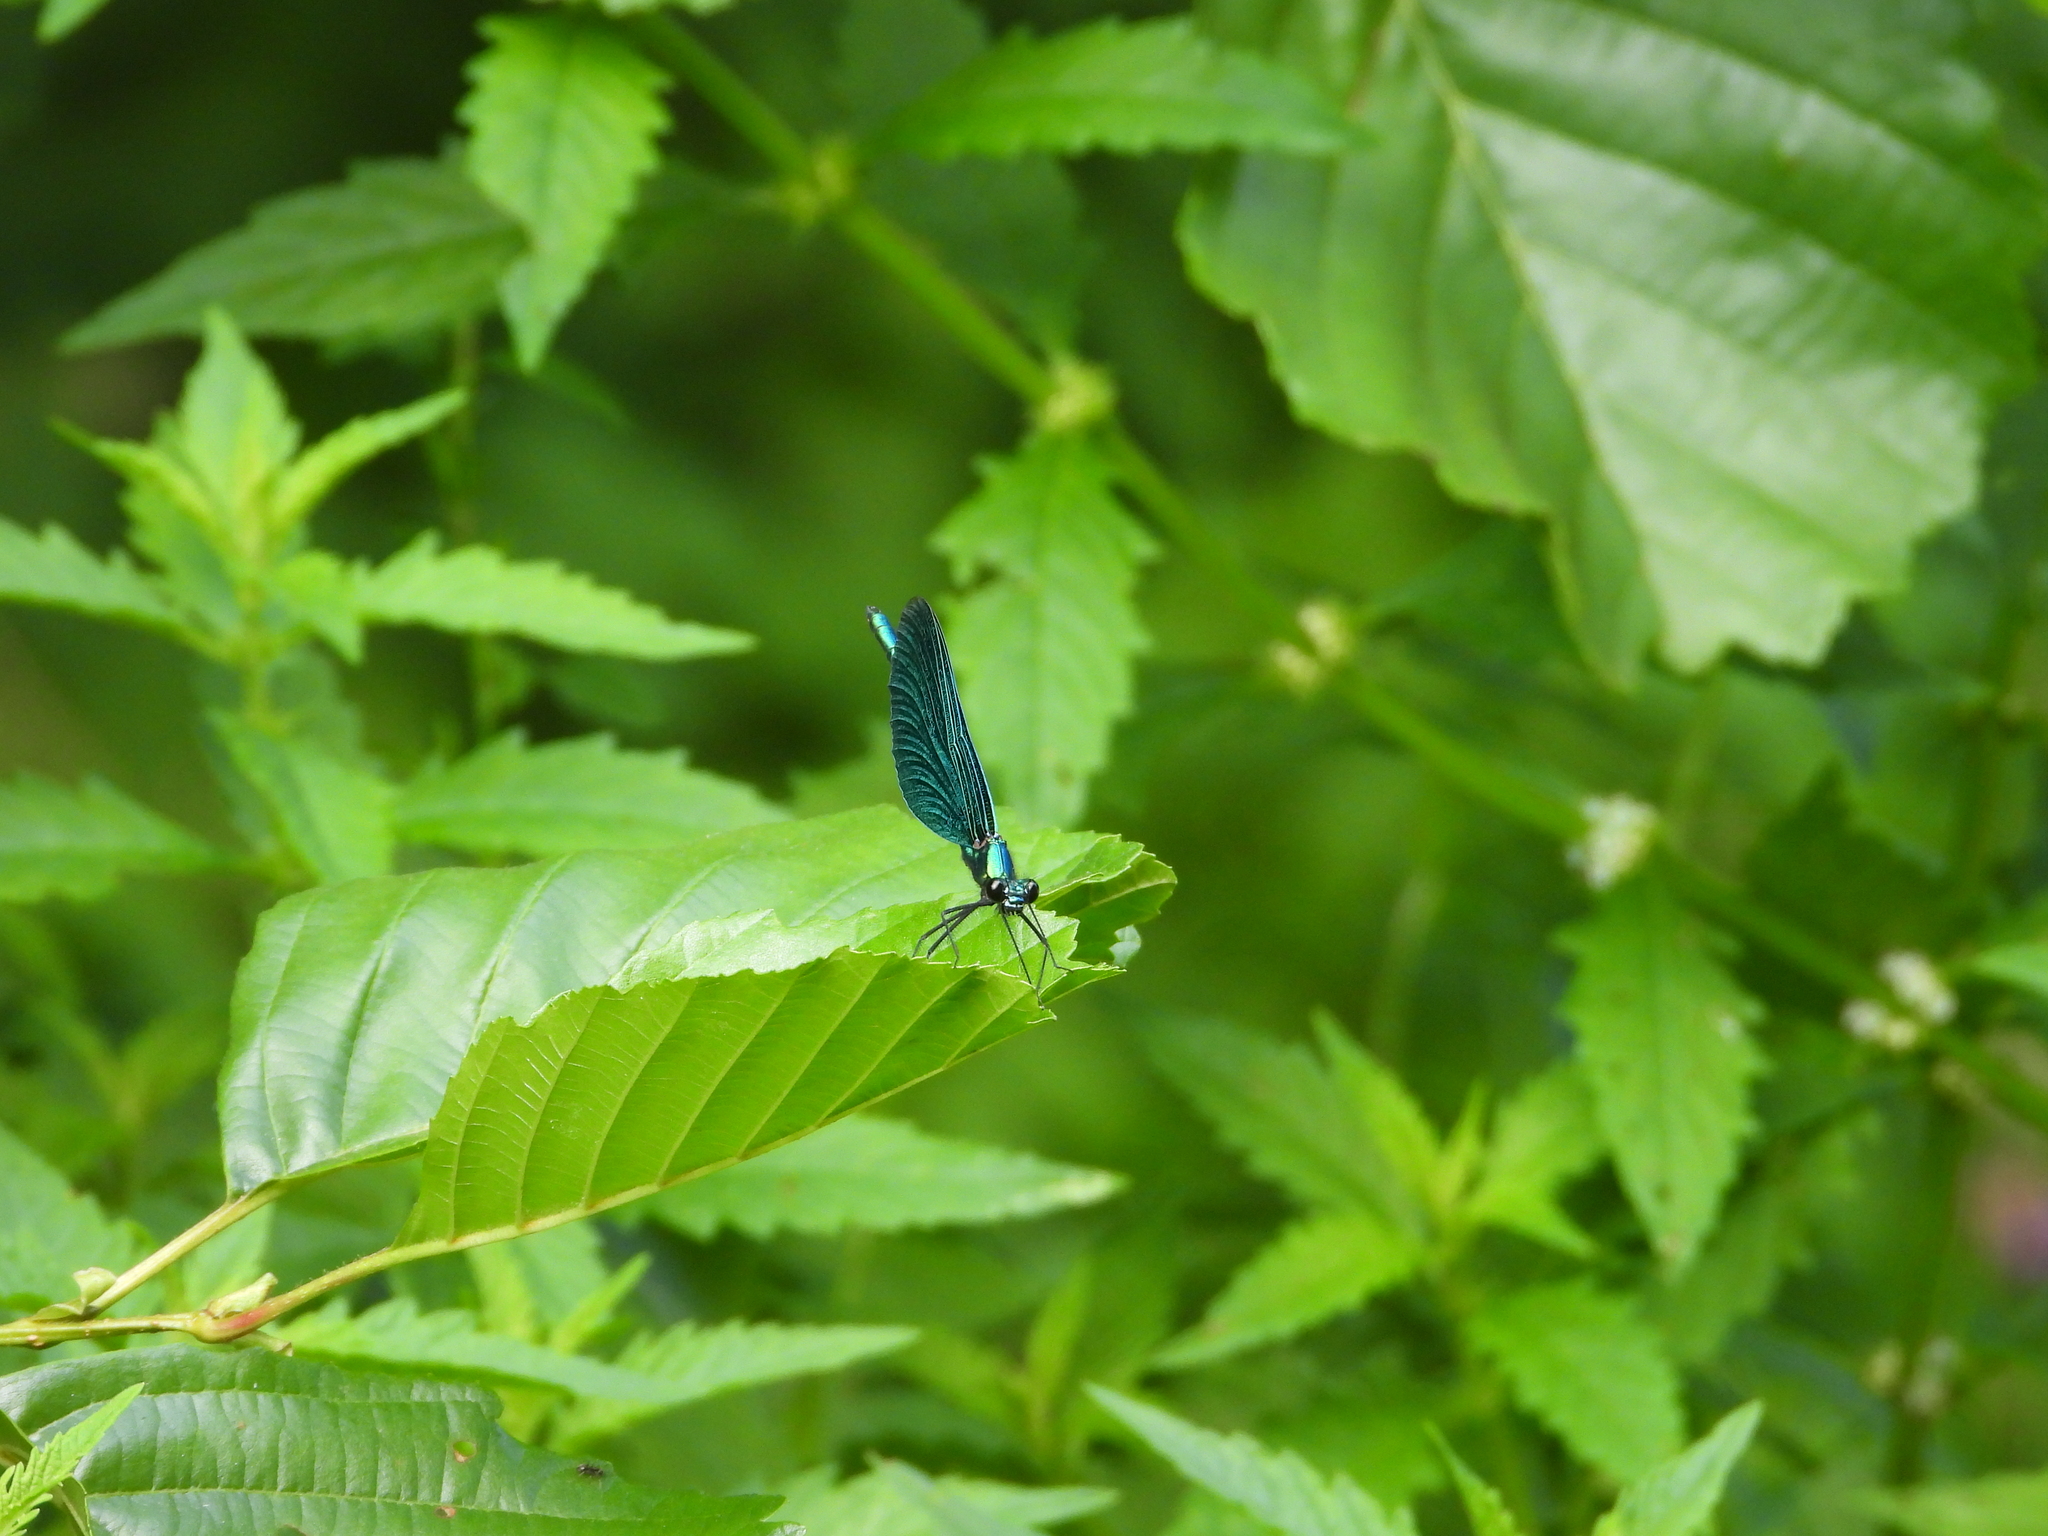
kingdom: Animalia
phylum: Arthropoda
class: Insecta
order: Odonata
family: Calopterygidae
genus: Calopteryx
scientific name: Calopteryx virgo
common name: Beautiful demoiselle
